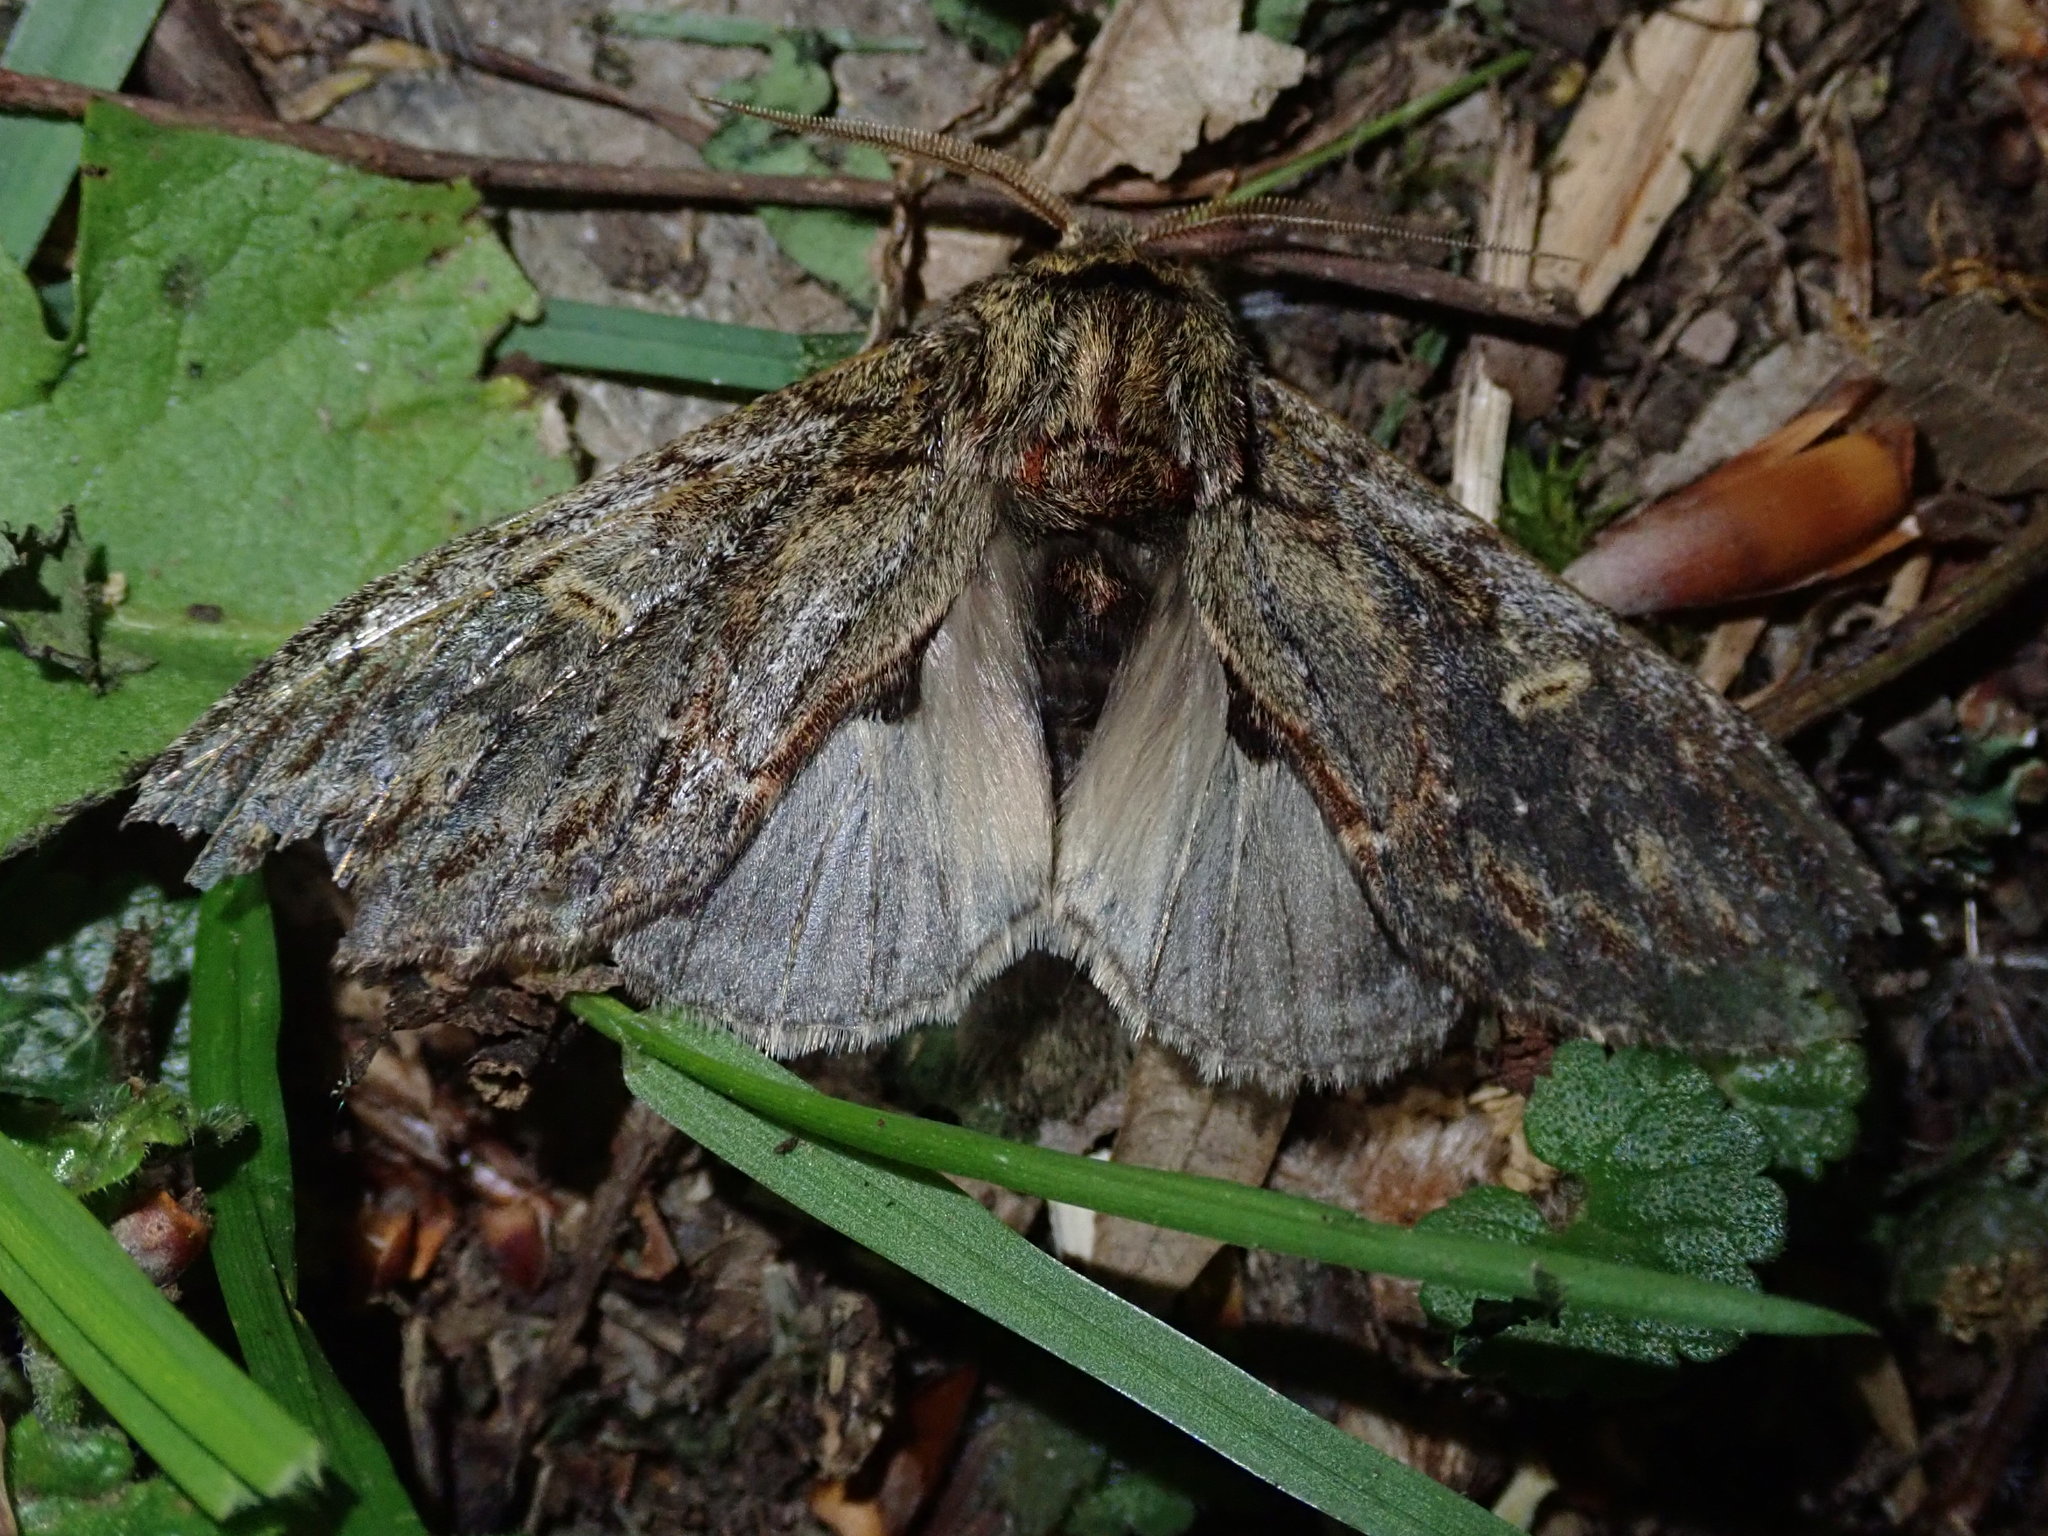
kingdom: Animalia
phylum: Arthropoda
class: Insecta
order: Lepidoptera
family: Notodontidae
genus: Peridea
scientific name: Peridea anceps
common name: Great prominent
